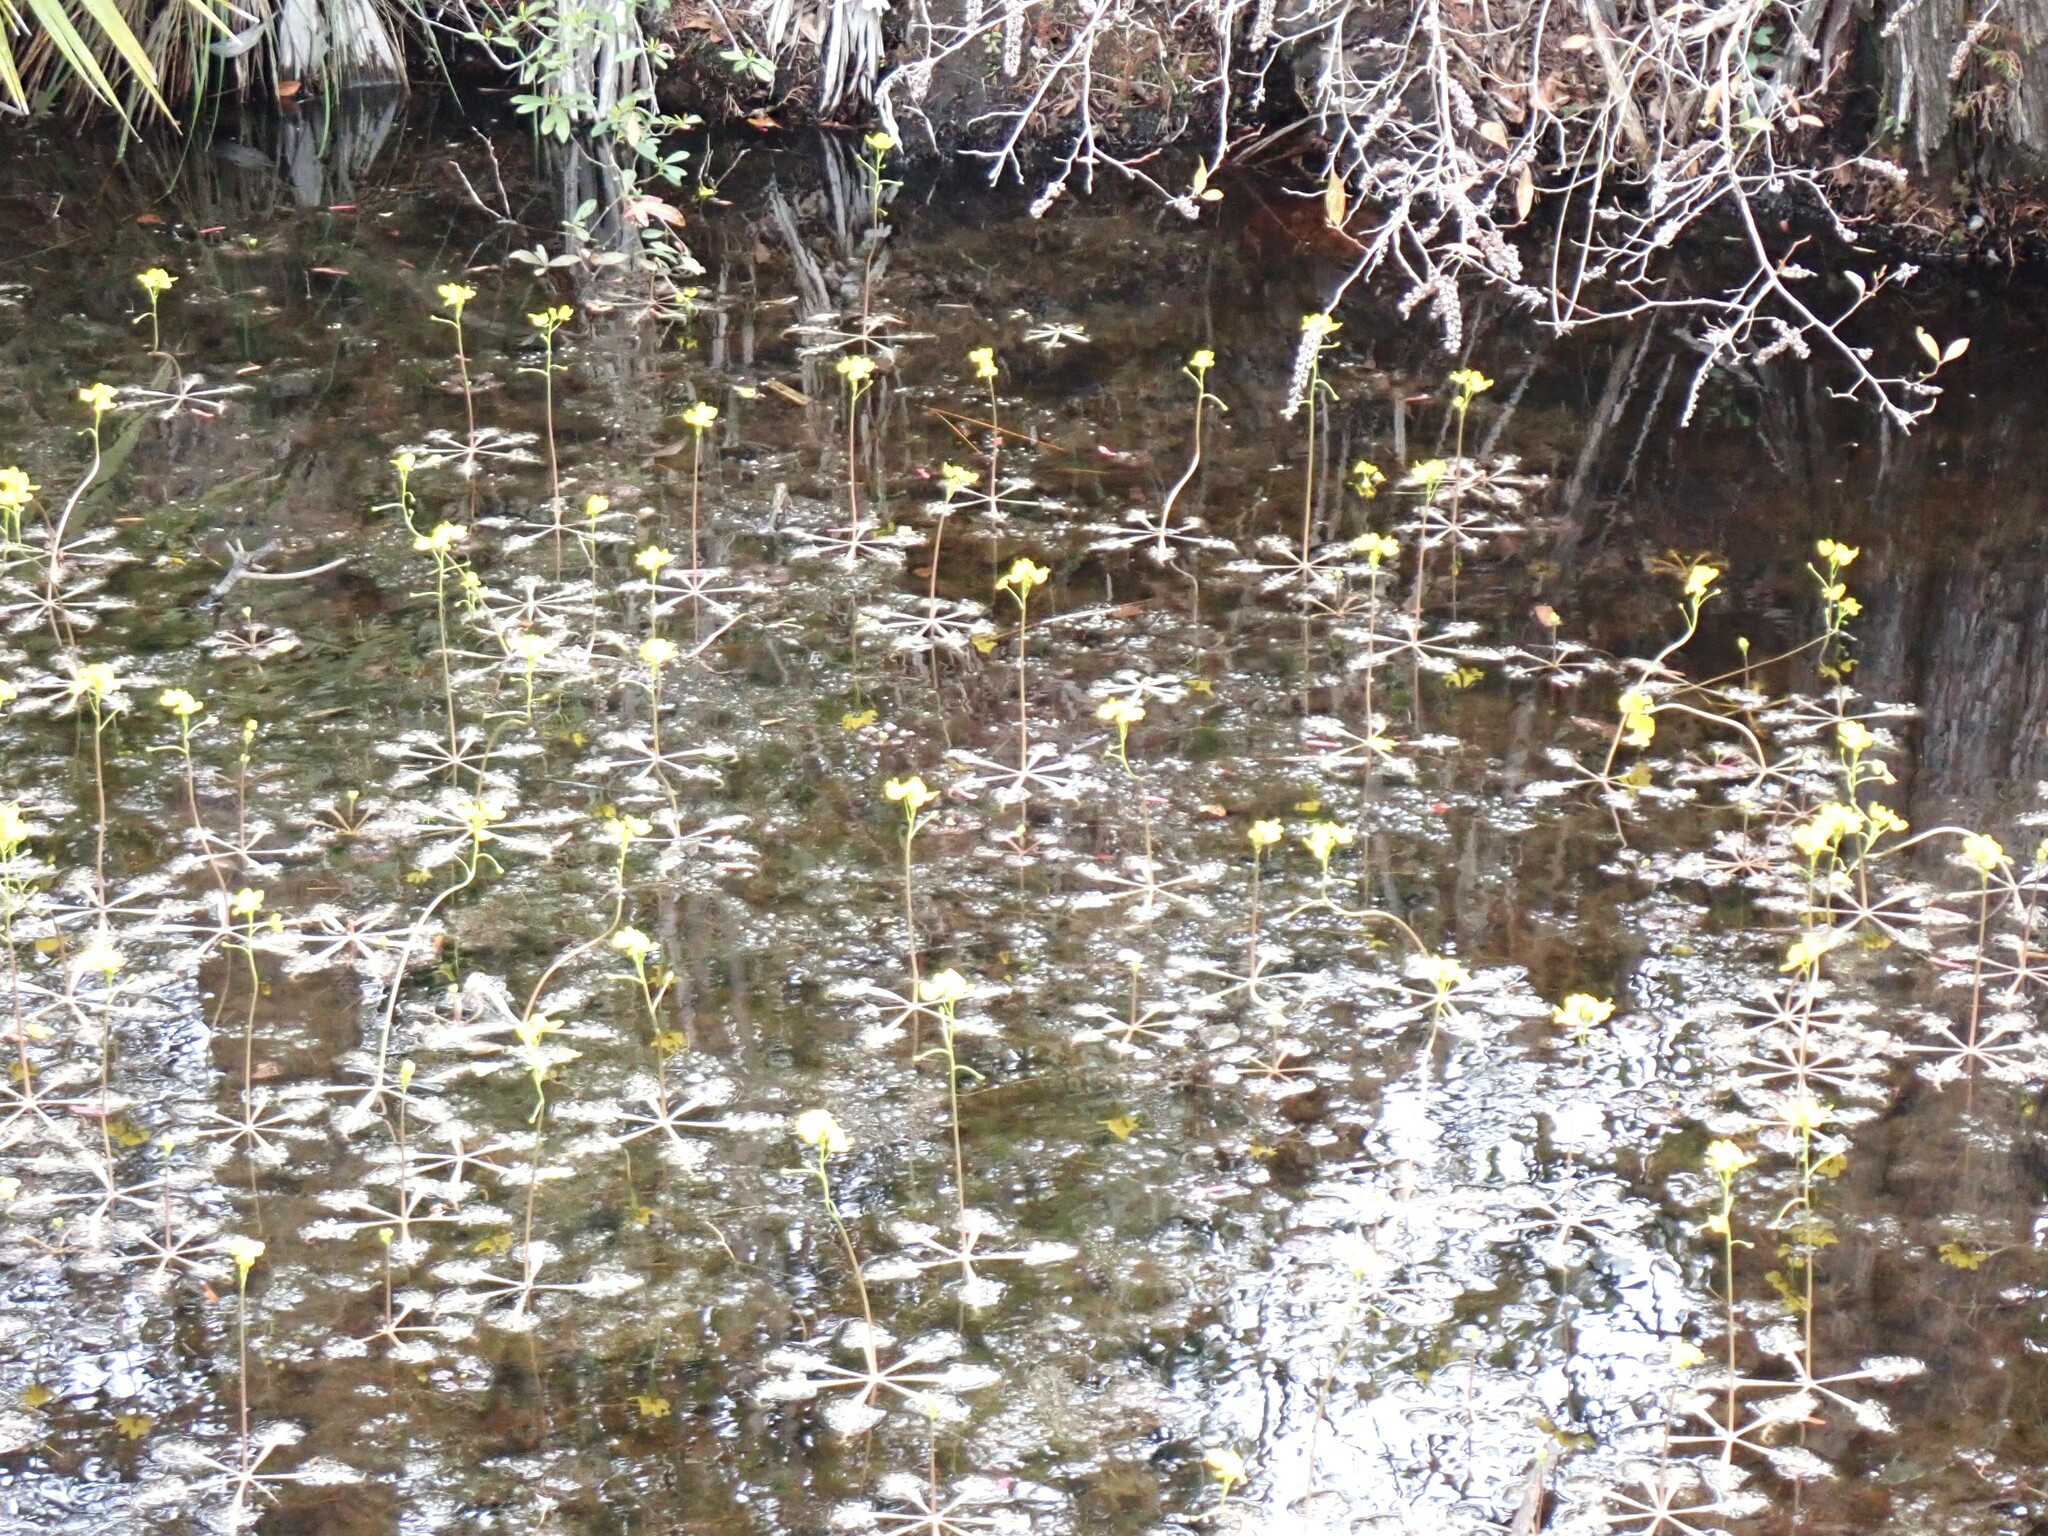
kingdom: Plantae
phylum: Tracheophyta
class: Magnoliopsida
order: Lamiales
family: Lentibulariaceae
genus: Utricularia
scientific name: Utricularia inflata
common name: Floating bladderwort
